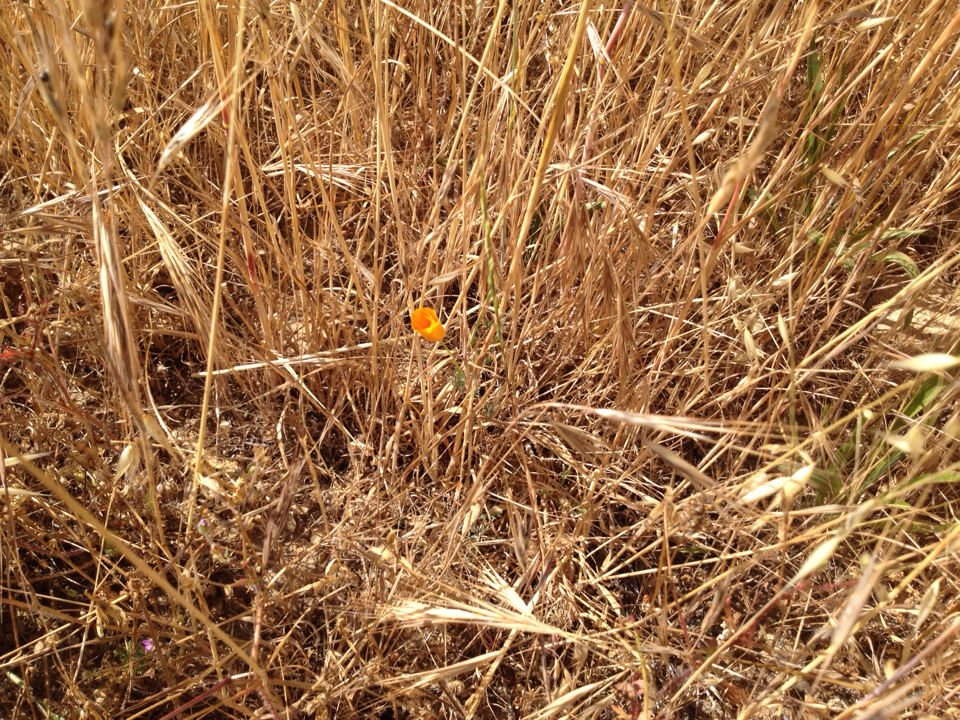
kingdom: Plantae
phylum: Tracheophyta
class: Magnoliopsida
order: Ranunculales
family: Papaveraceae
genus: Eschscholzia
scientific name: Eschscholzia californica
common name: California poppy
